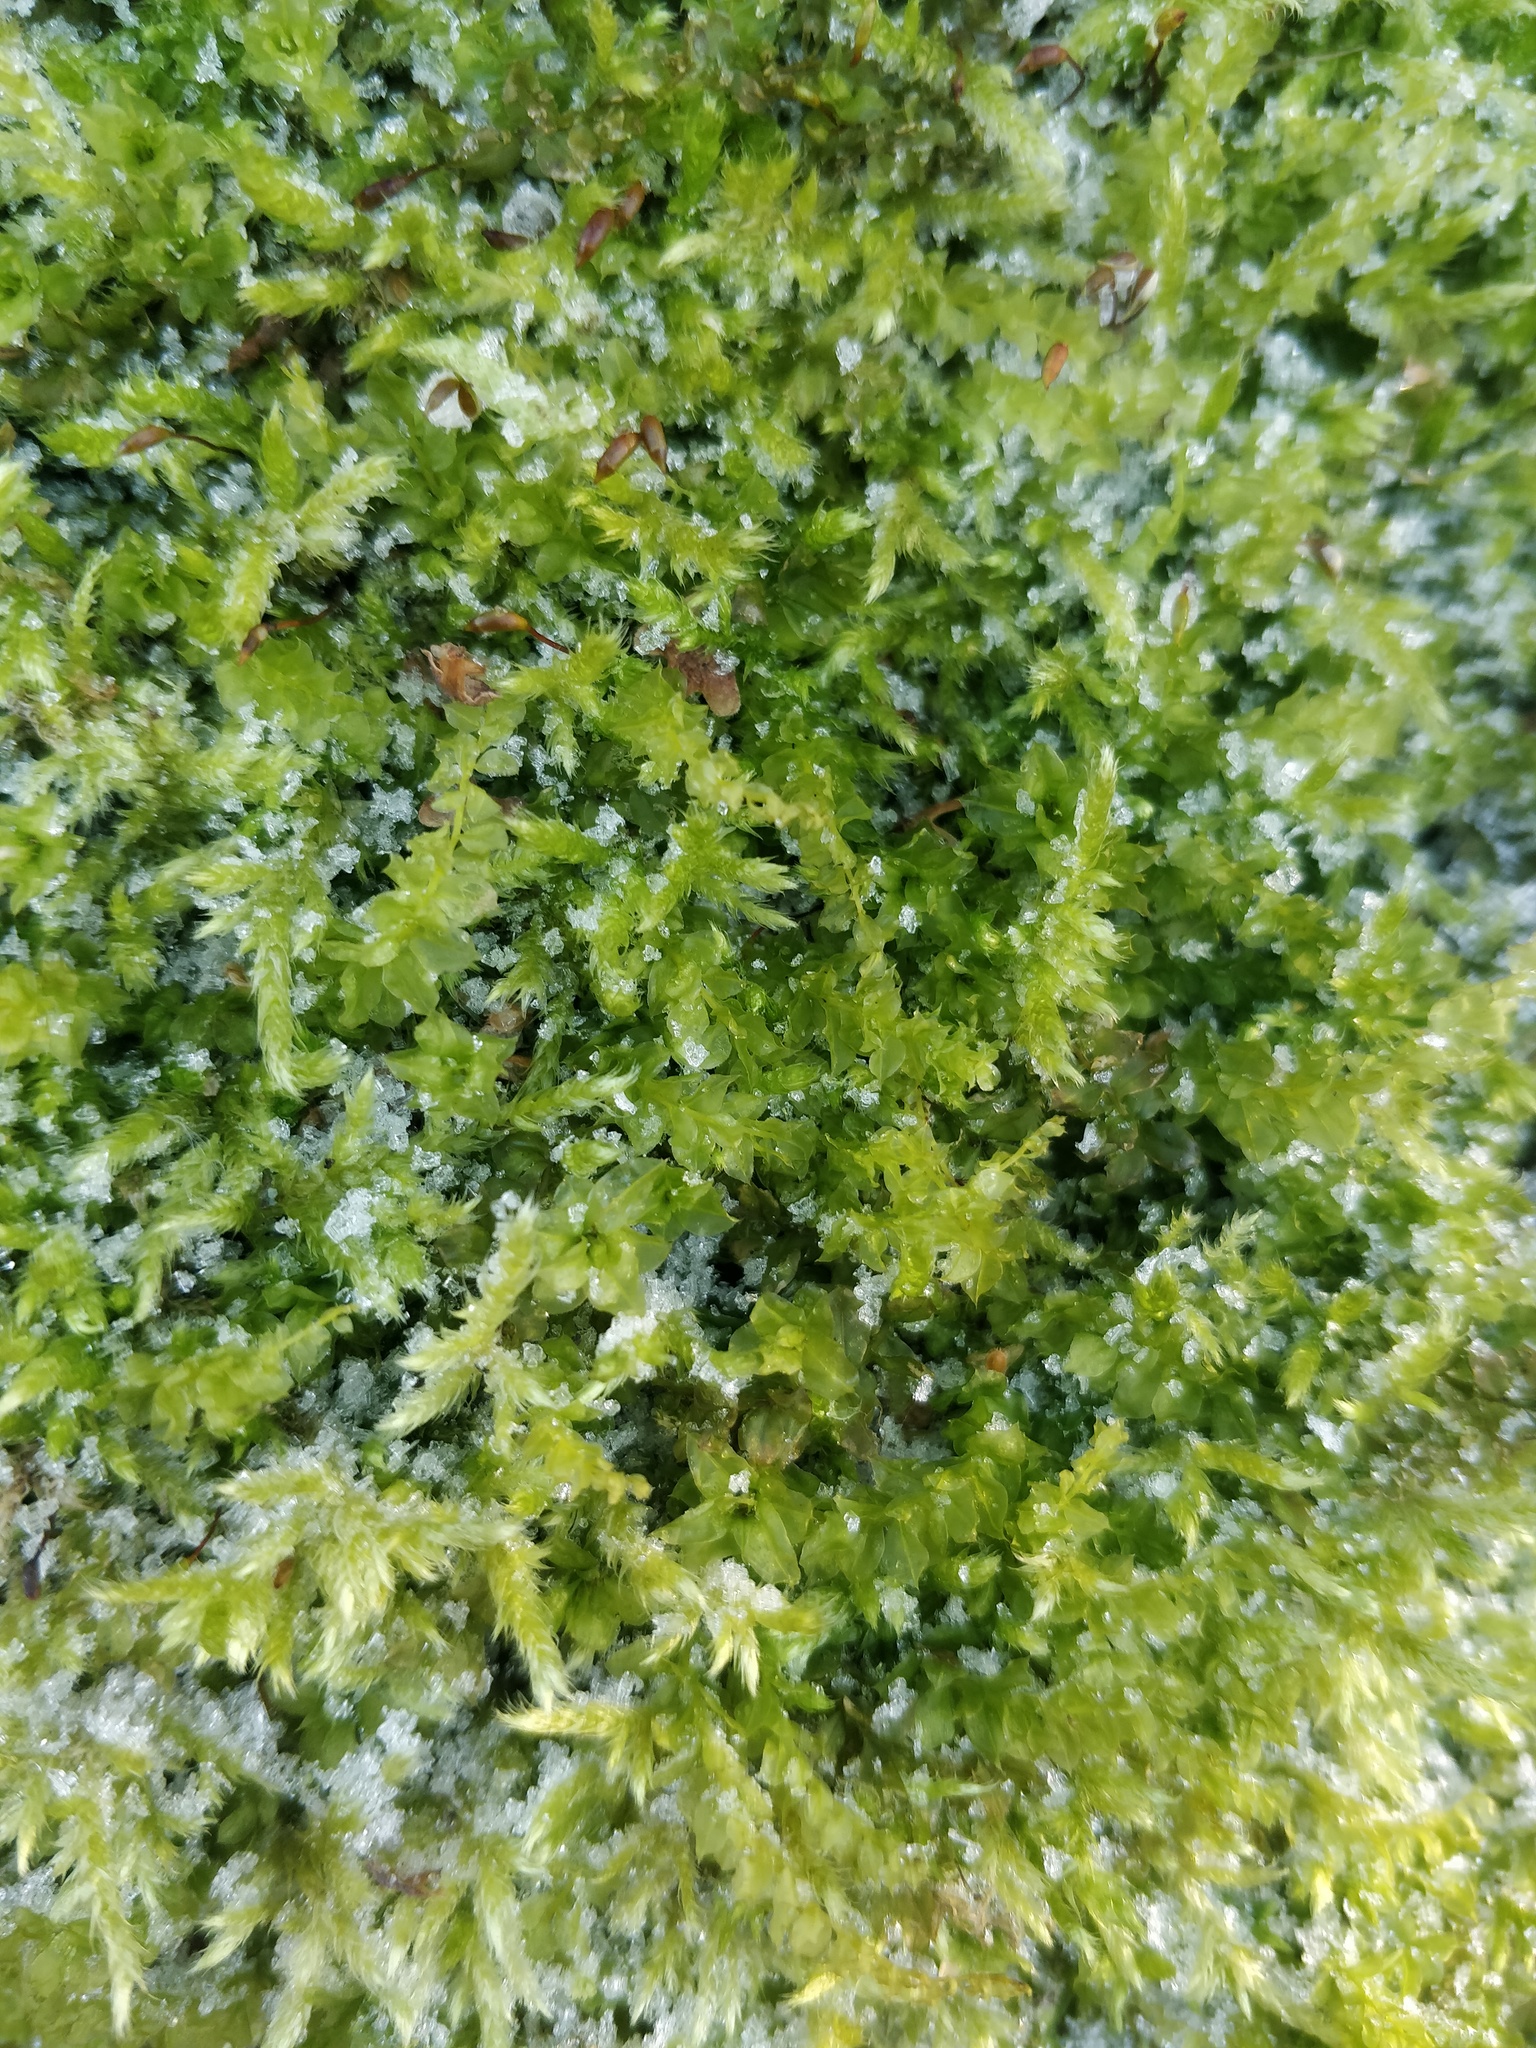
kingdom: Plantae
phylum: Bryophyta
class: Bryopsida
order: Bryales
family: Mniaceae
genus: Plagiomnium
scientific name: Plagiomnium cuspidatum
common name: Woodsy leafy moss
